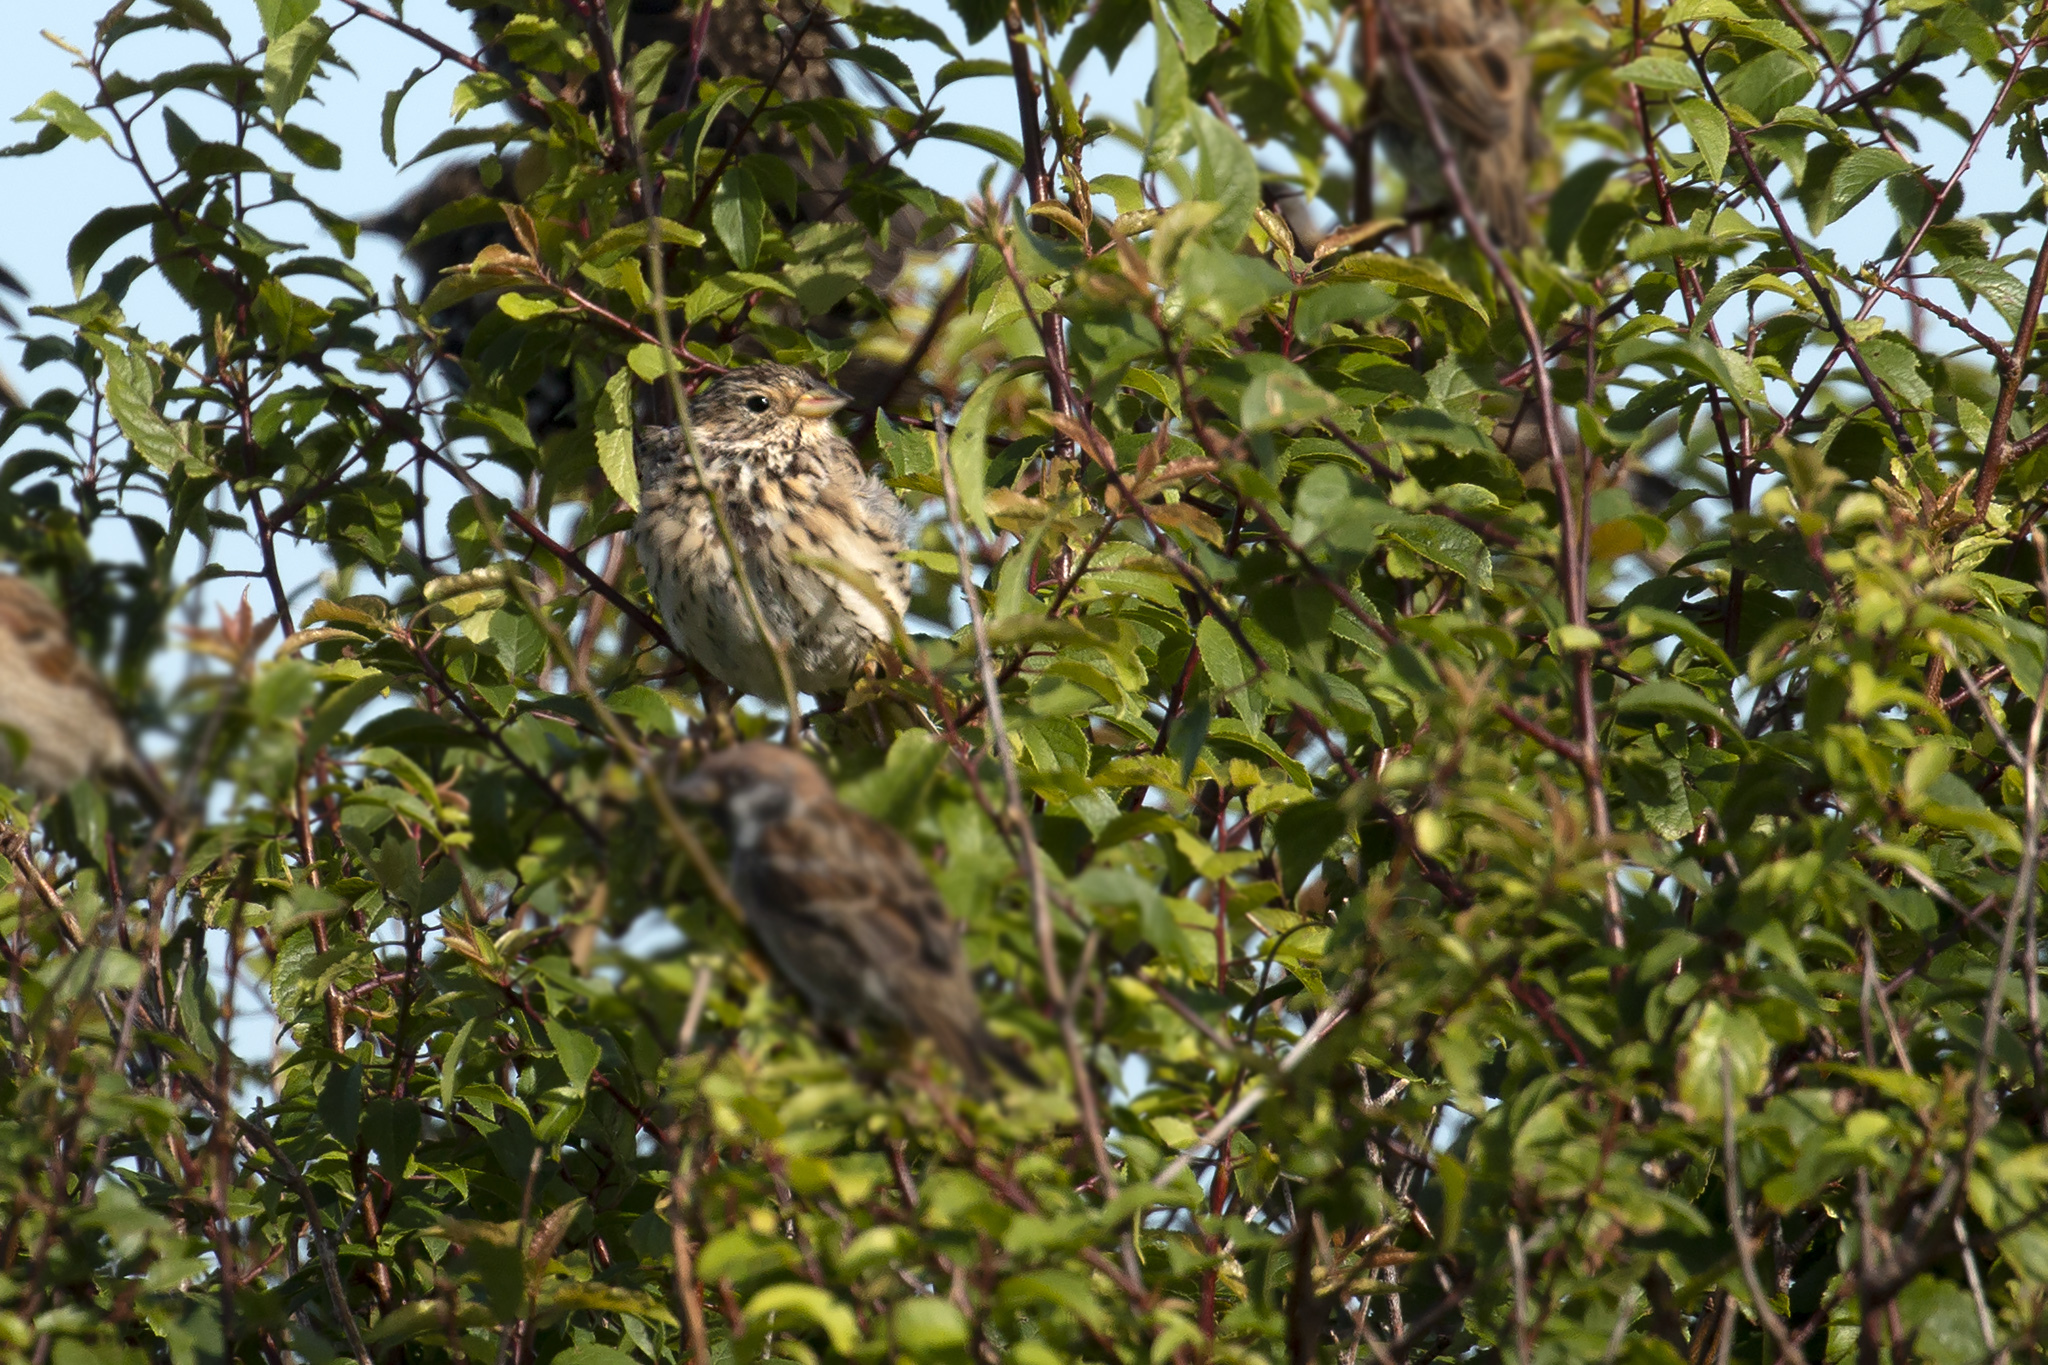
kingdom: Animalia
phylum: Chordata
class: Aves
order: Passeriformes
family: Emberizidae
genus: Emberiza
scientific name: Emberiza calandra
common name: Corn bunting
